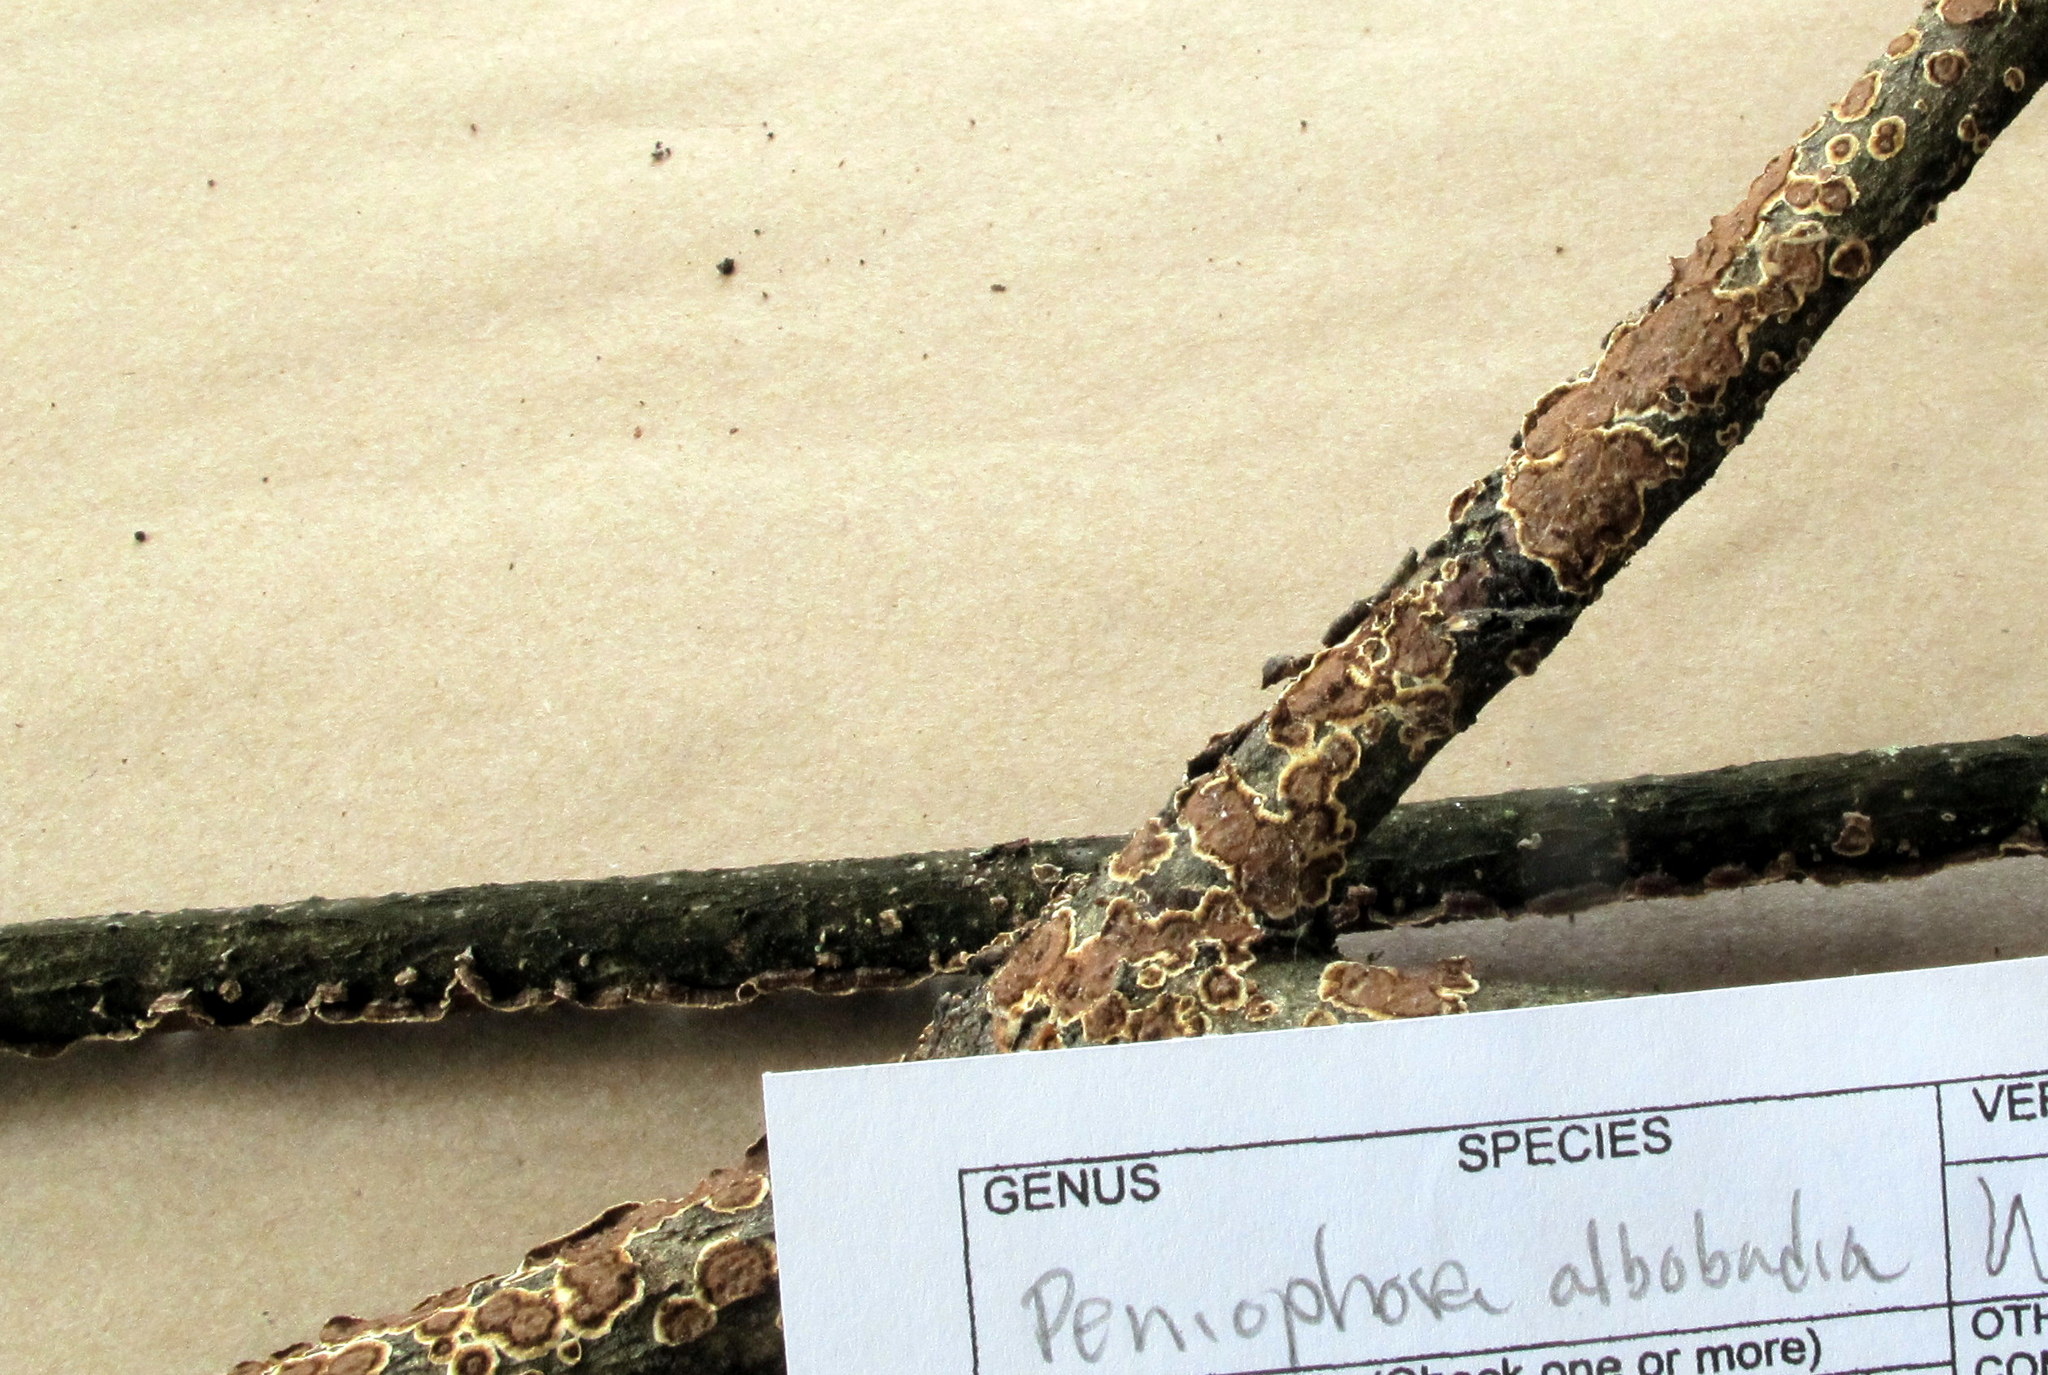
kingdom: Fungi
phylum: Basidiomycota
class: Agaricomycetes
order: Russulales
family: Peniophoraceae
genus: Peniophora
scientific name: Peniophora albobadia
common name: Giraffe spots
